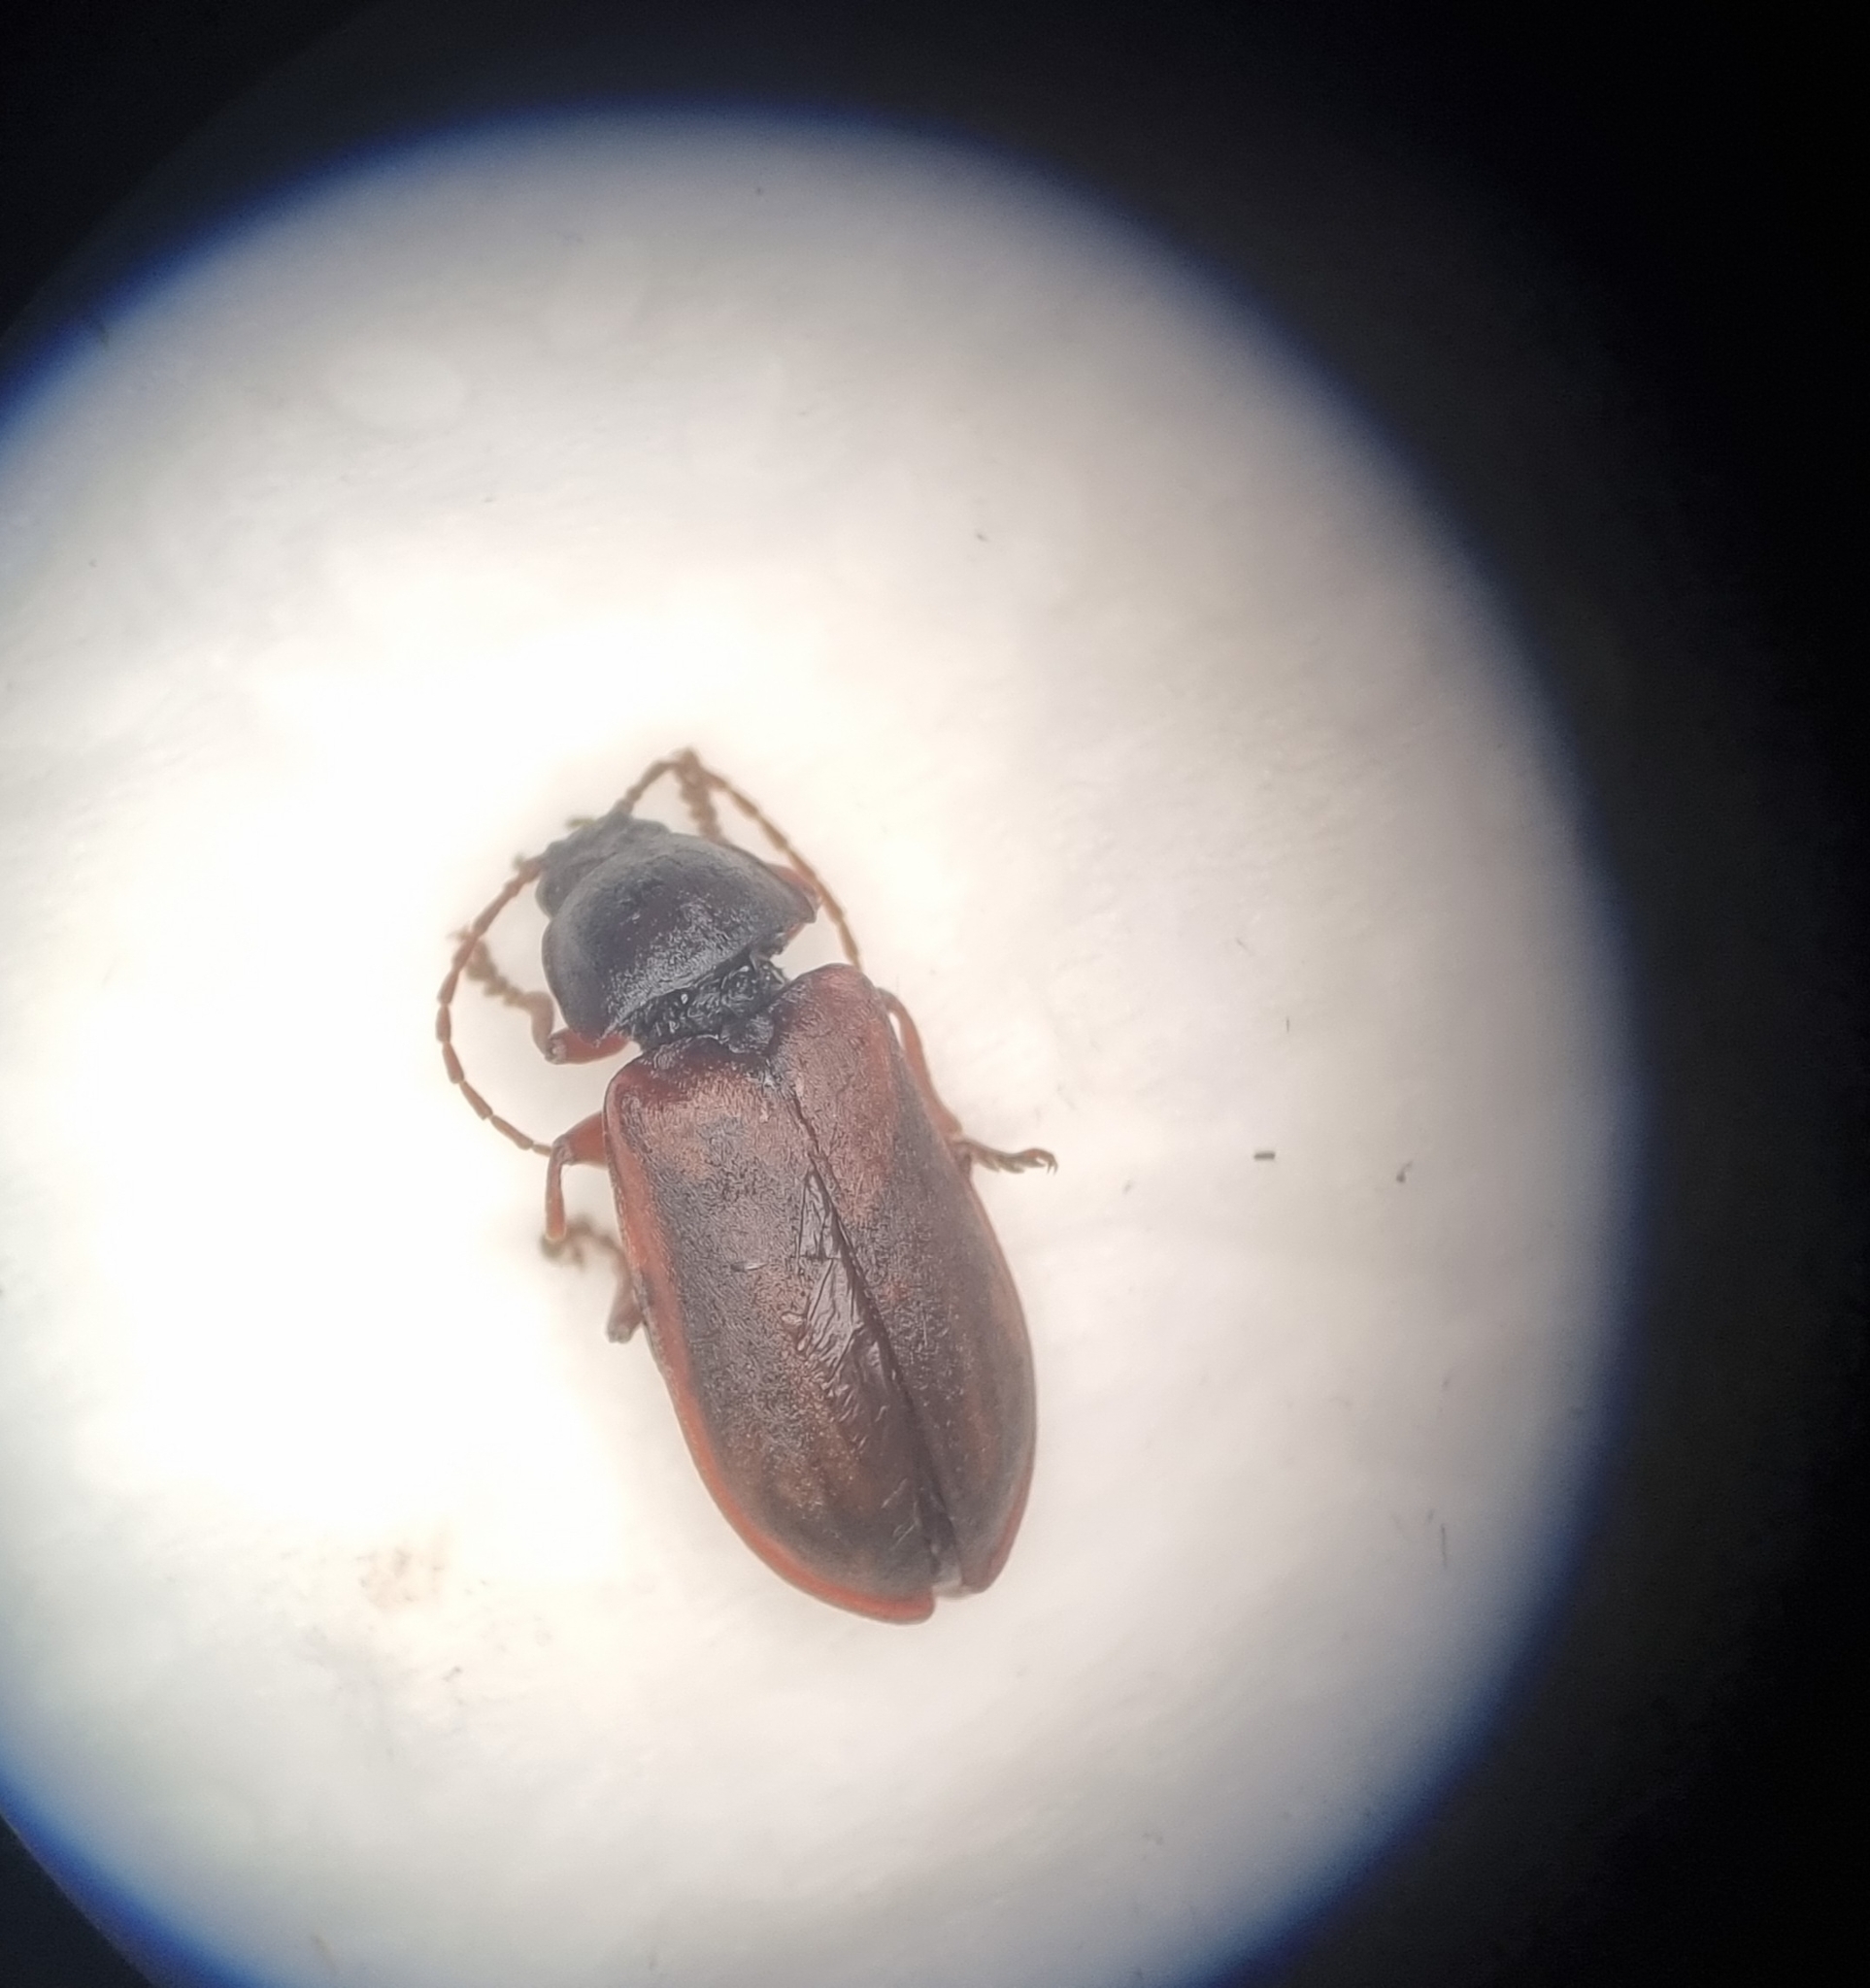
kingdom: Animalia
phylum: Arthropoda
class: Insecta
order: Coleoptera
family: Dascillidae
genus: Dascillus
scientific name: Dascillus cervinus
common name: Orchid beetle
